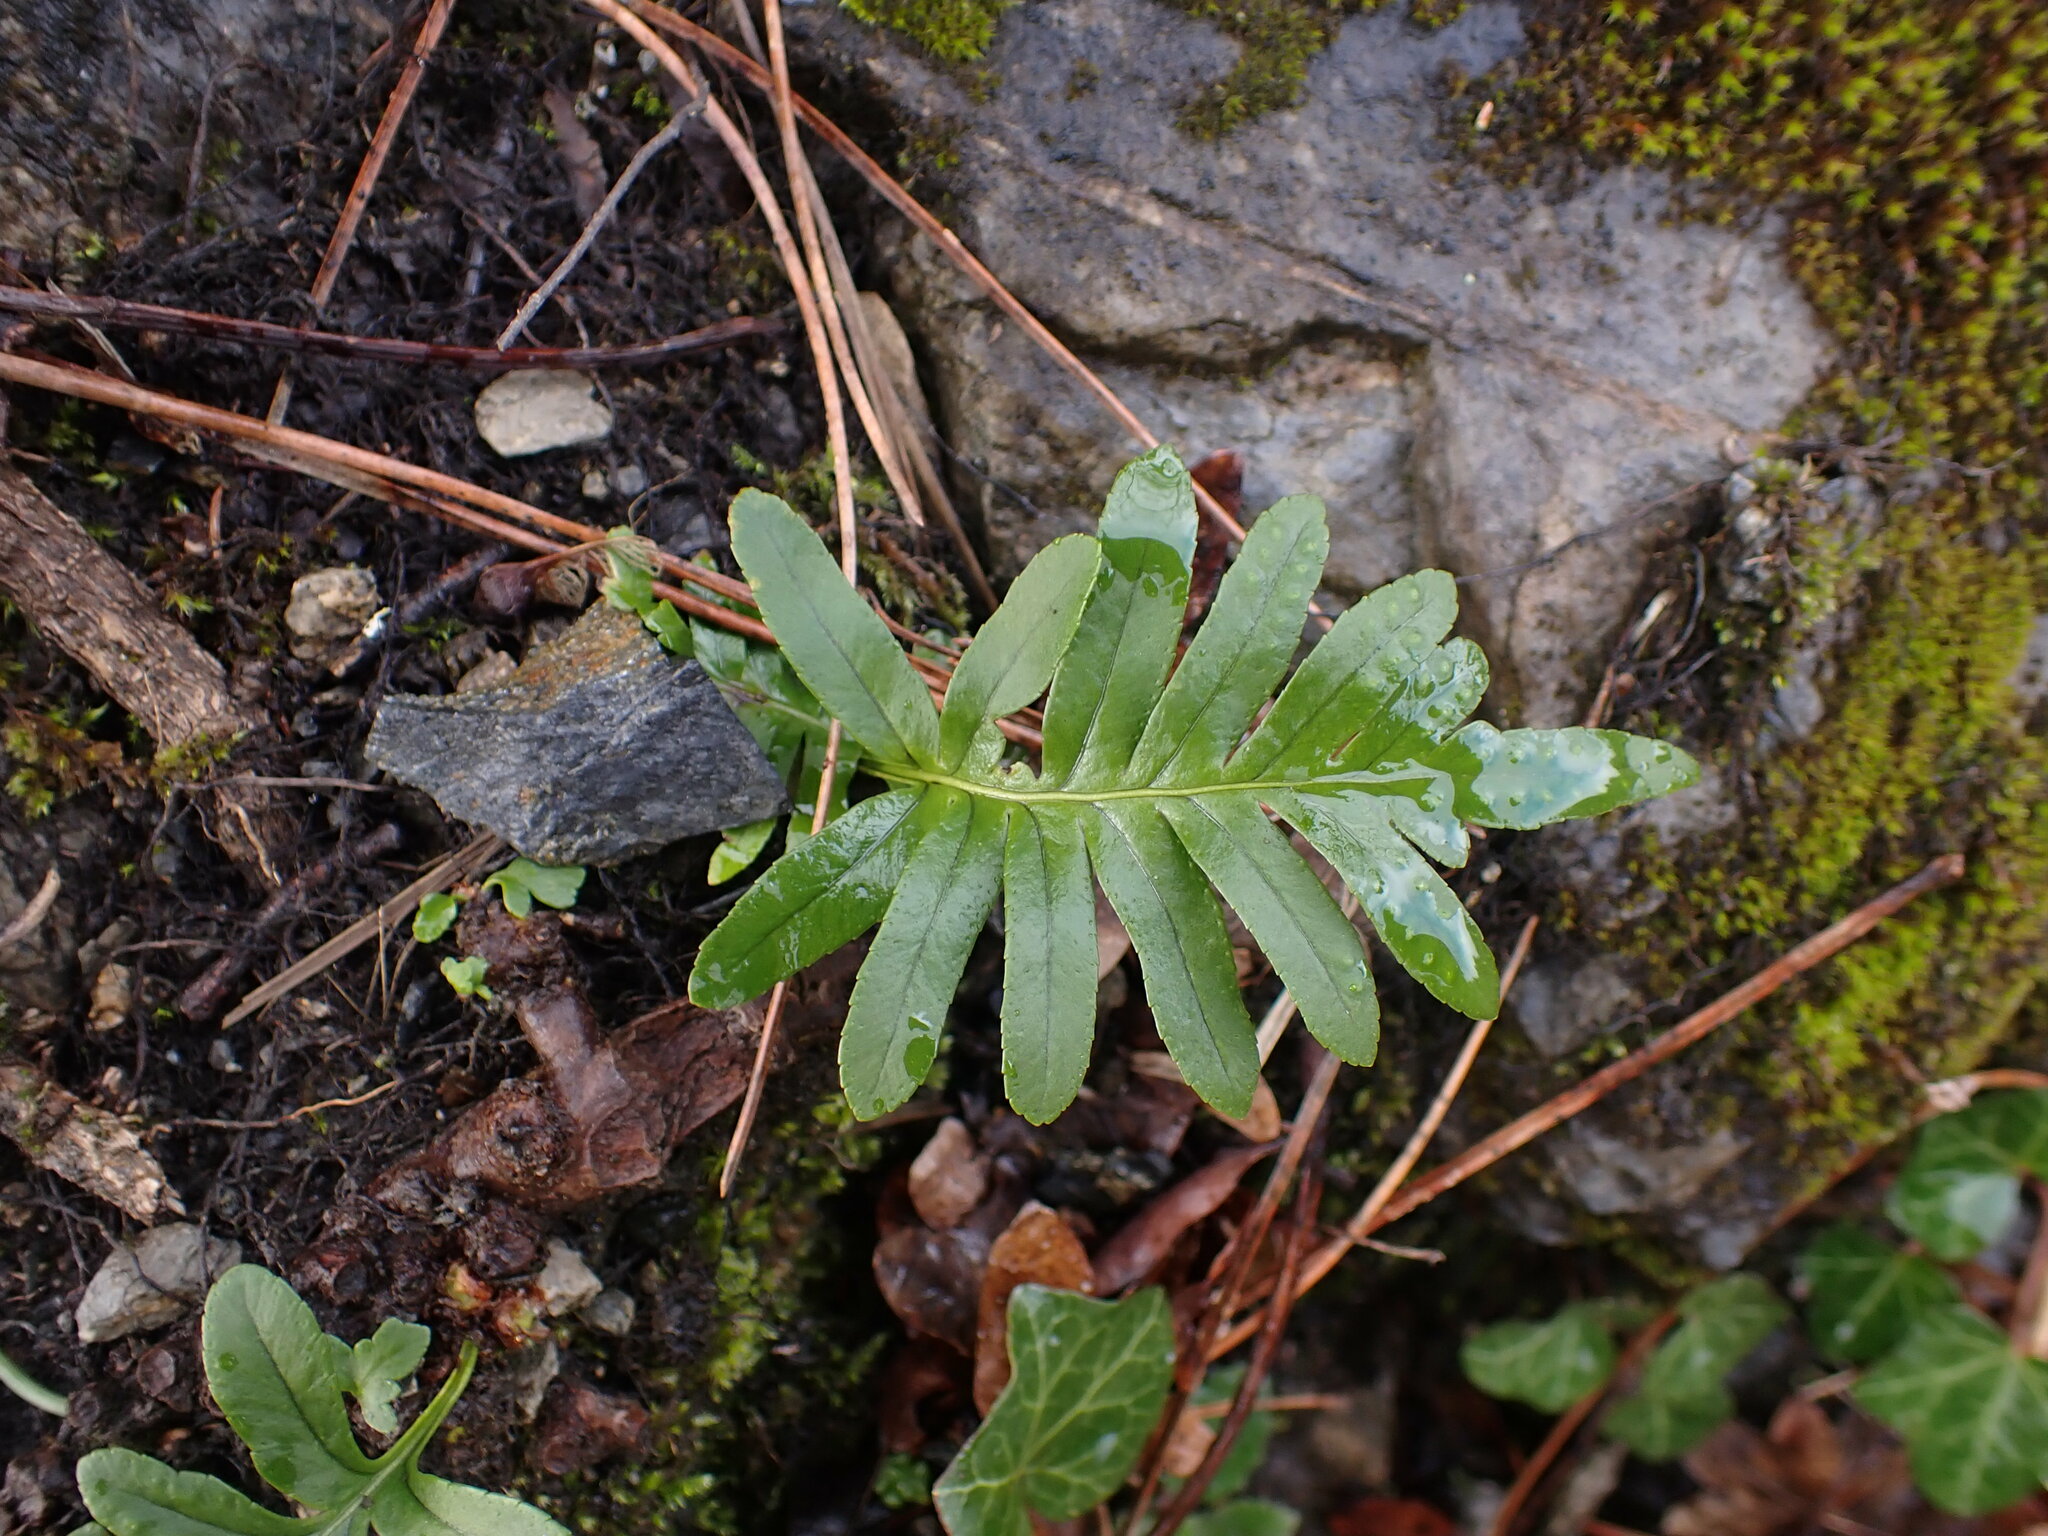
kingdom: Plantae
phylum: Tracheophyta
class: Polypodiopsida
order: Polypodiales
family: Polypodiaceae
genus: Polypodium
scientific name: Polypodium cambricum
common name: Southern polypody
